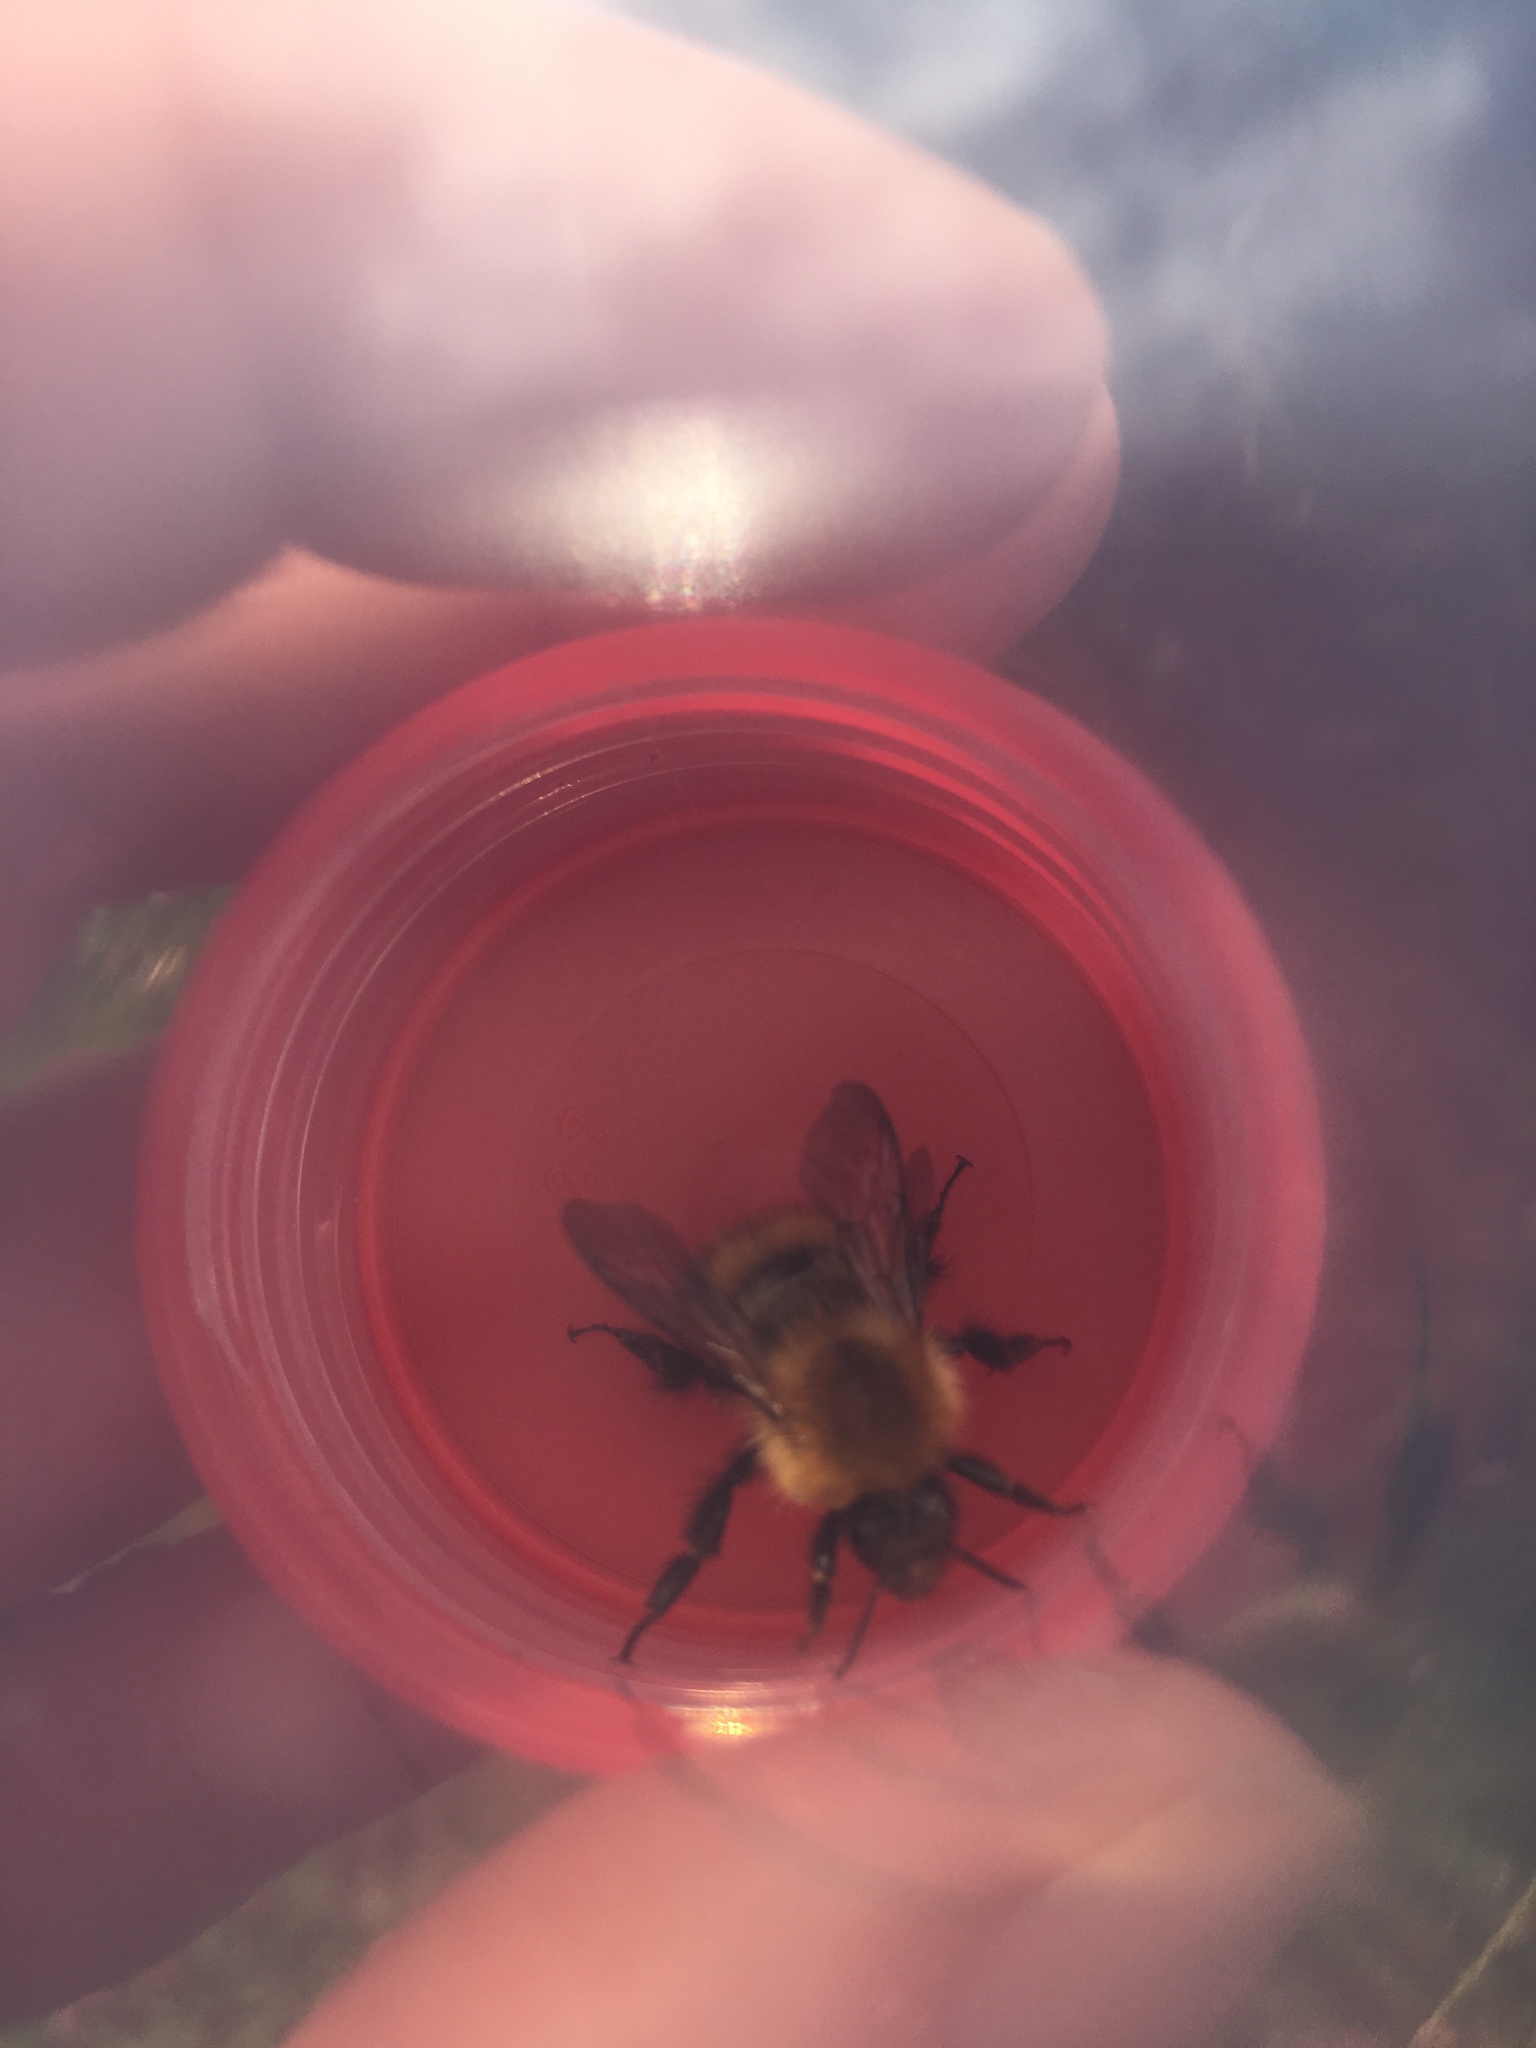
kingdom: Animalia
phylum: Arthropoda
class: Insecta
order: Hymenoptera
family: Apidae
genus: Bombus
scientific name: Bombus pascuorum
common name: Common carder bee
